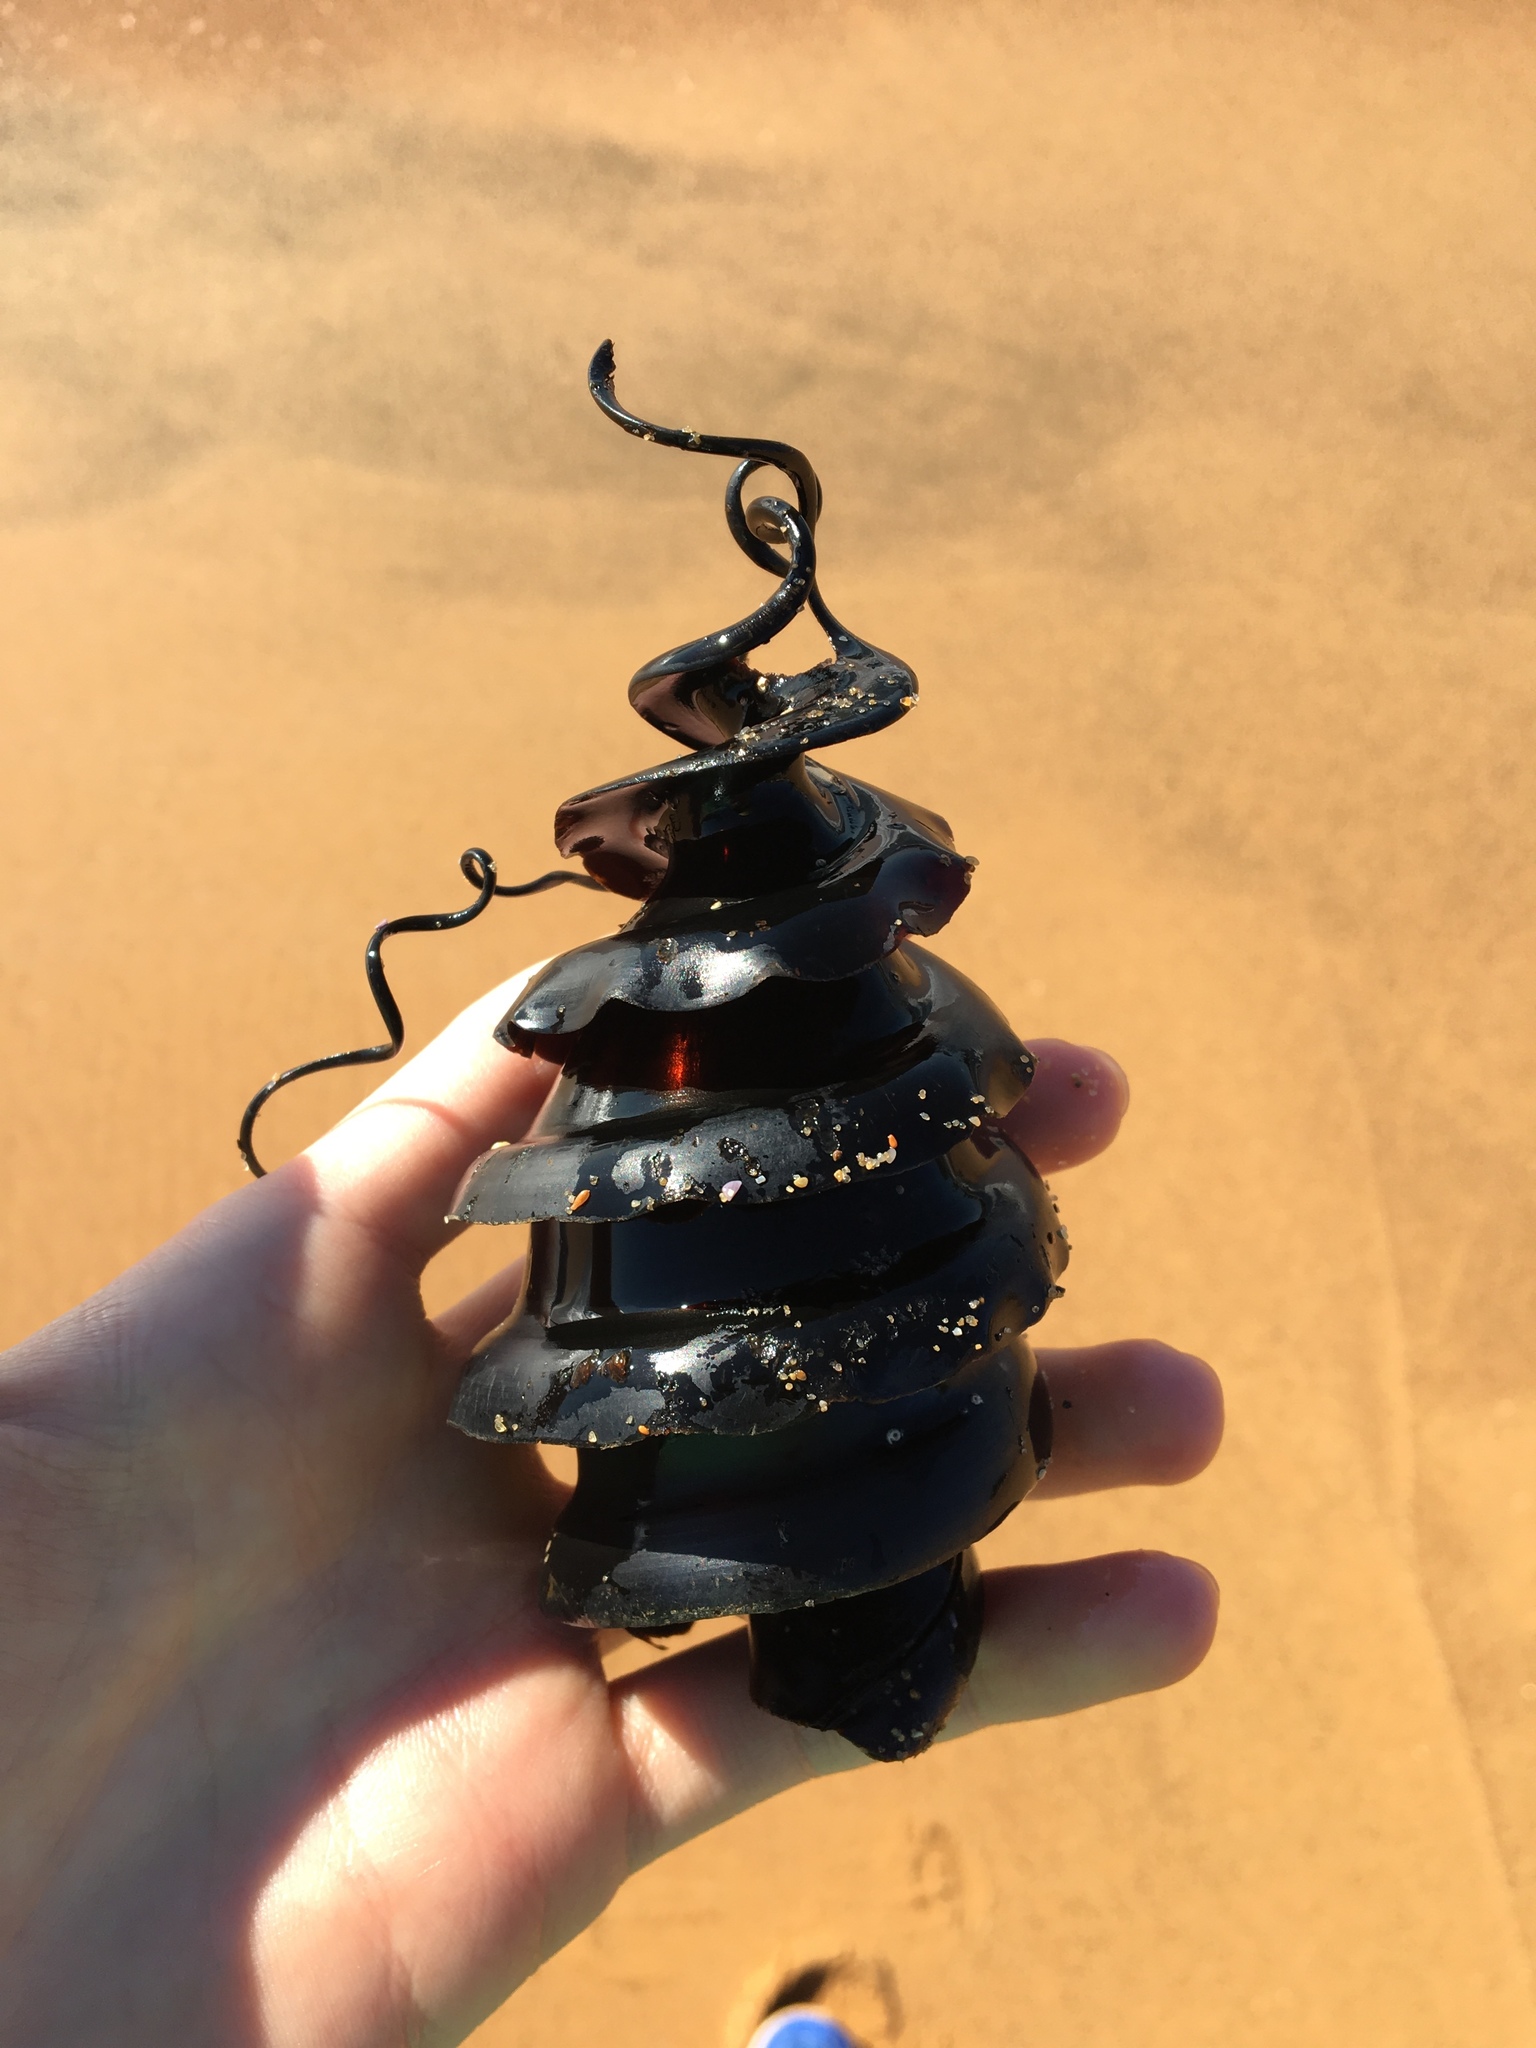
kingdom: Animalia
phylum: Chordata
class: Elasmobranchii
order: Heterodontiformes
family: Heterodontidae
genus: Heterodontus
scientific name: Heterodontus galeatus
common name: Crested bullhead shark
